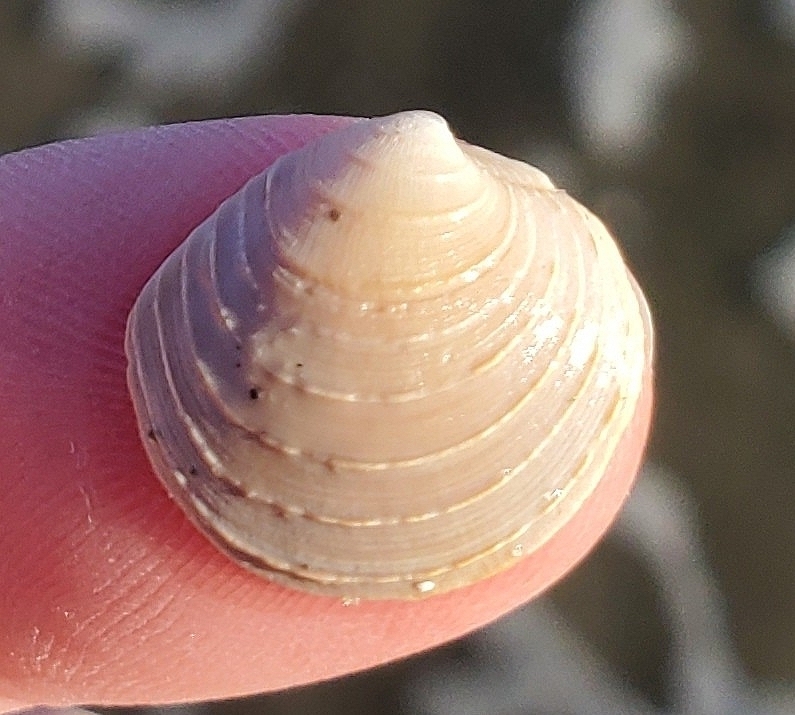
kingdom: Animalia
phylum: Mollusca
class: Bivalvia
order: Venerida
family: Veneridae
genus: Mercenaria
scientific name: Mercenaria mercenaria
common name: American hard-shelled clam
